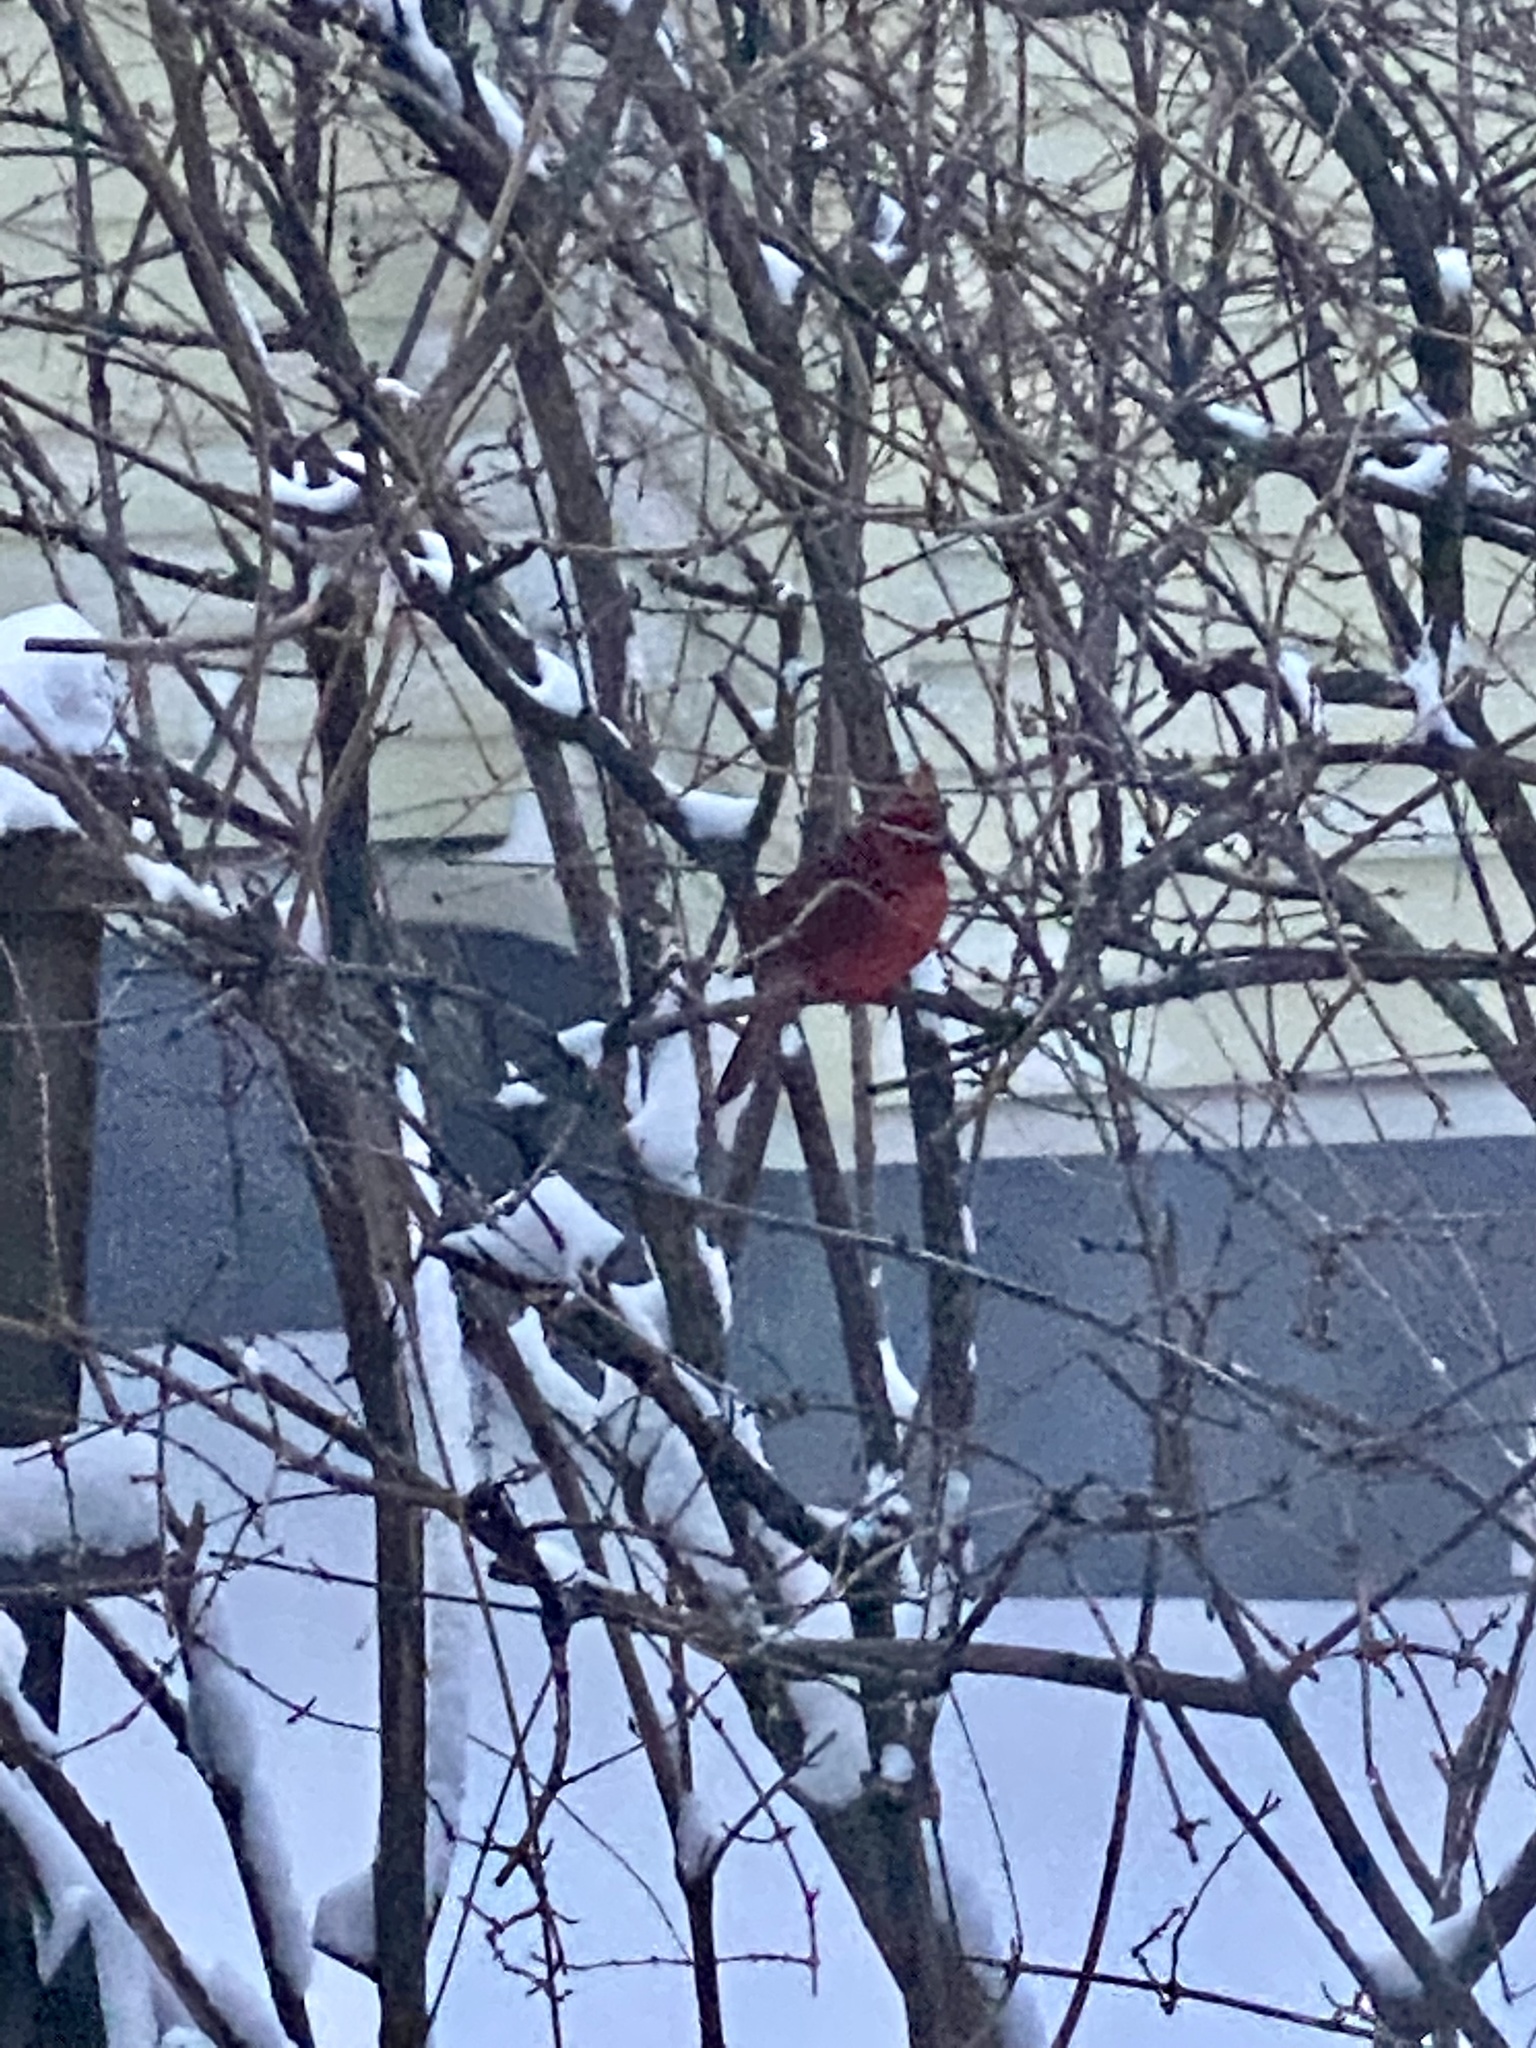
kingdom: Animalia
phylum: Chordata
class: Aves
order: Passeriformes
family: Cardinalidae
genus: Cardinalis
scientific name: Cardinalis cardinalis
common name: Northern cardinal
